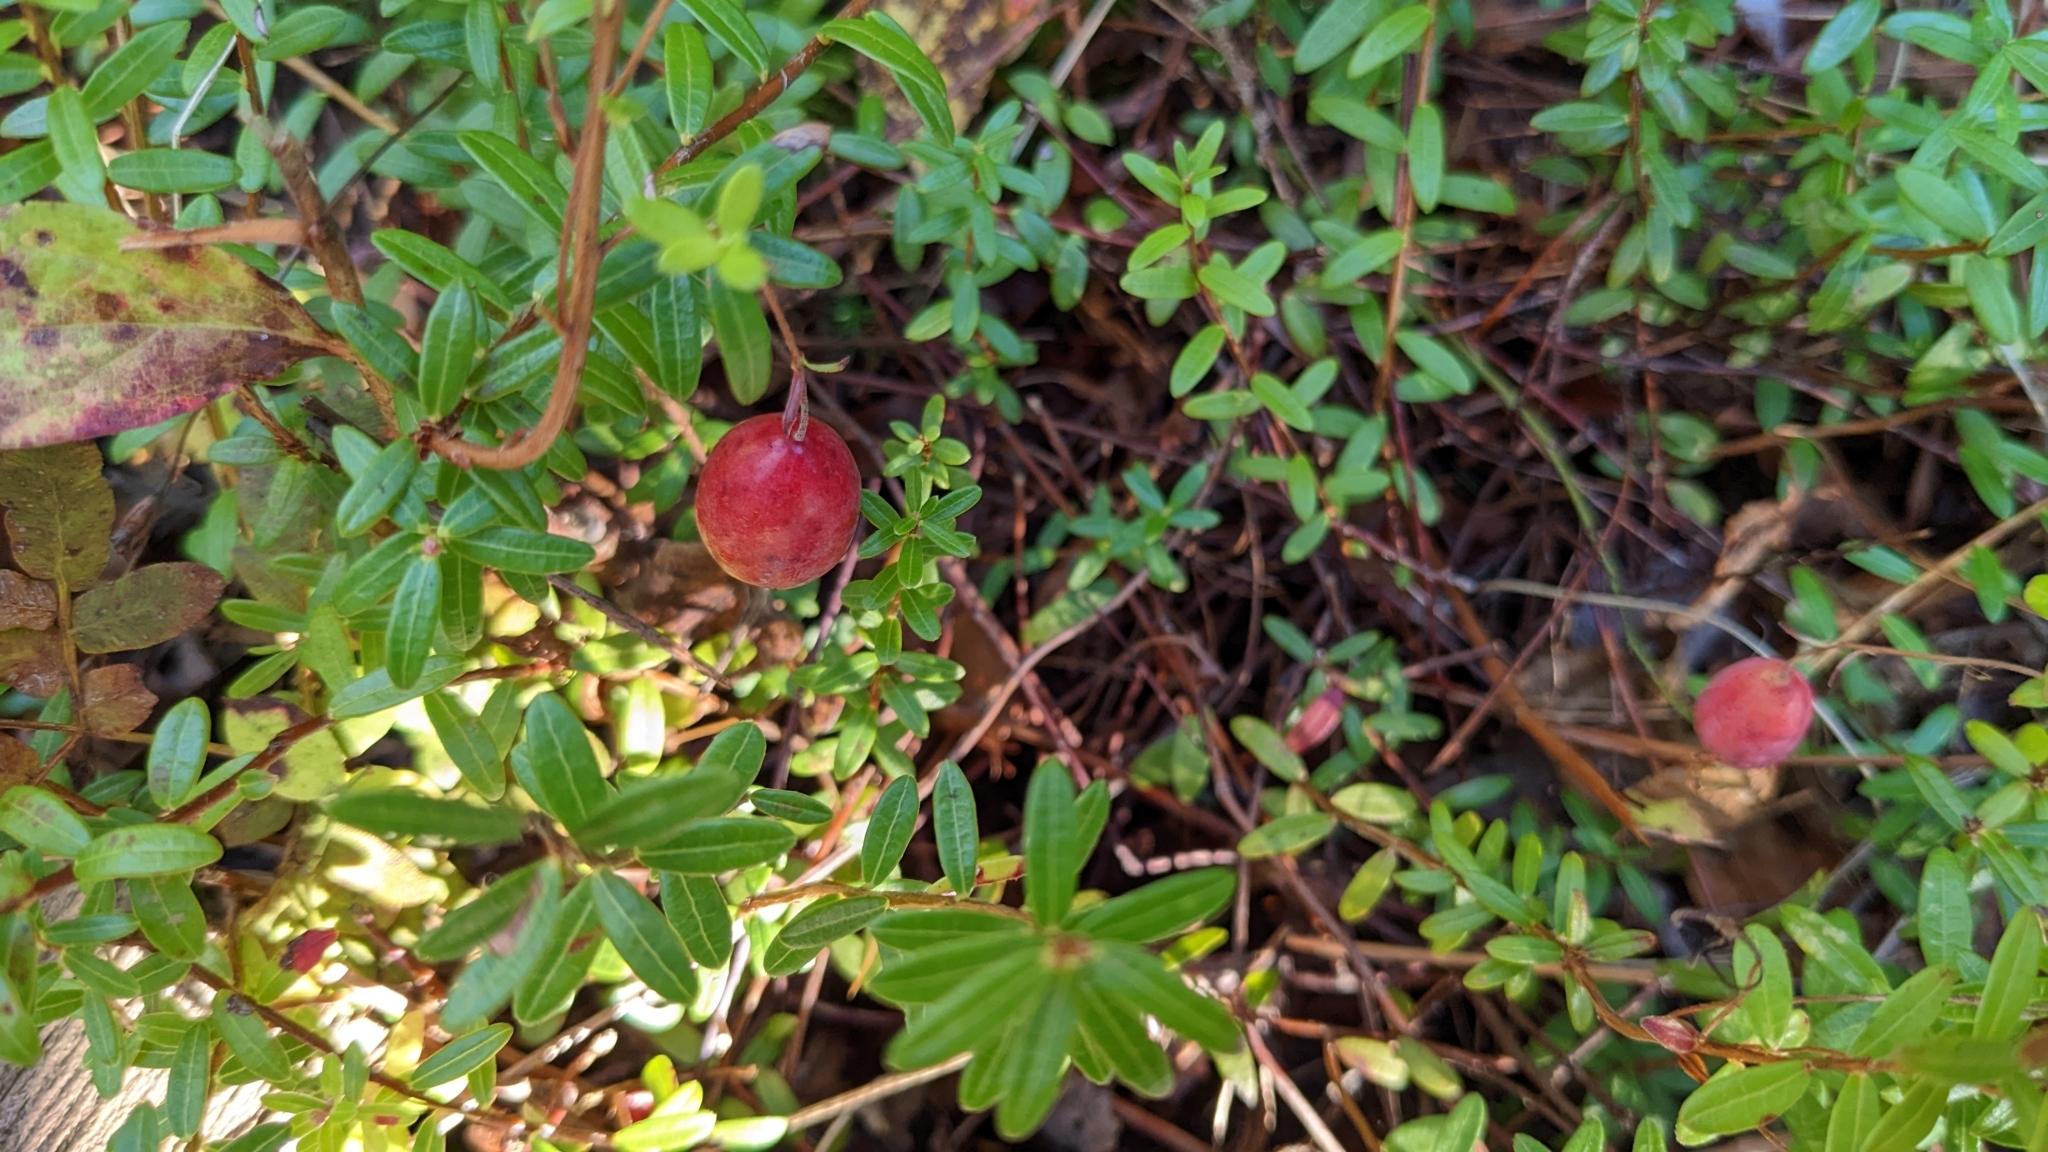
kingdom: Plantae
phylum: Tracheophyta
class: Magnoliopsida
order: Ericales
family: Ericaceae
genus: Vaccinium
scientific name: Vaccinium macrocarpon
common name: American cranberry
